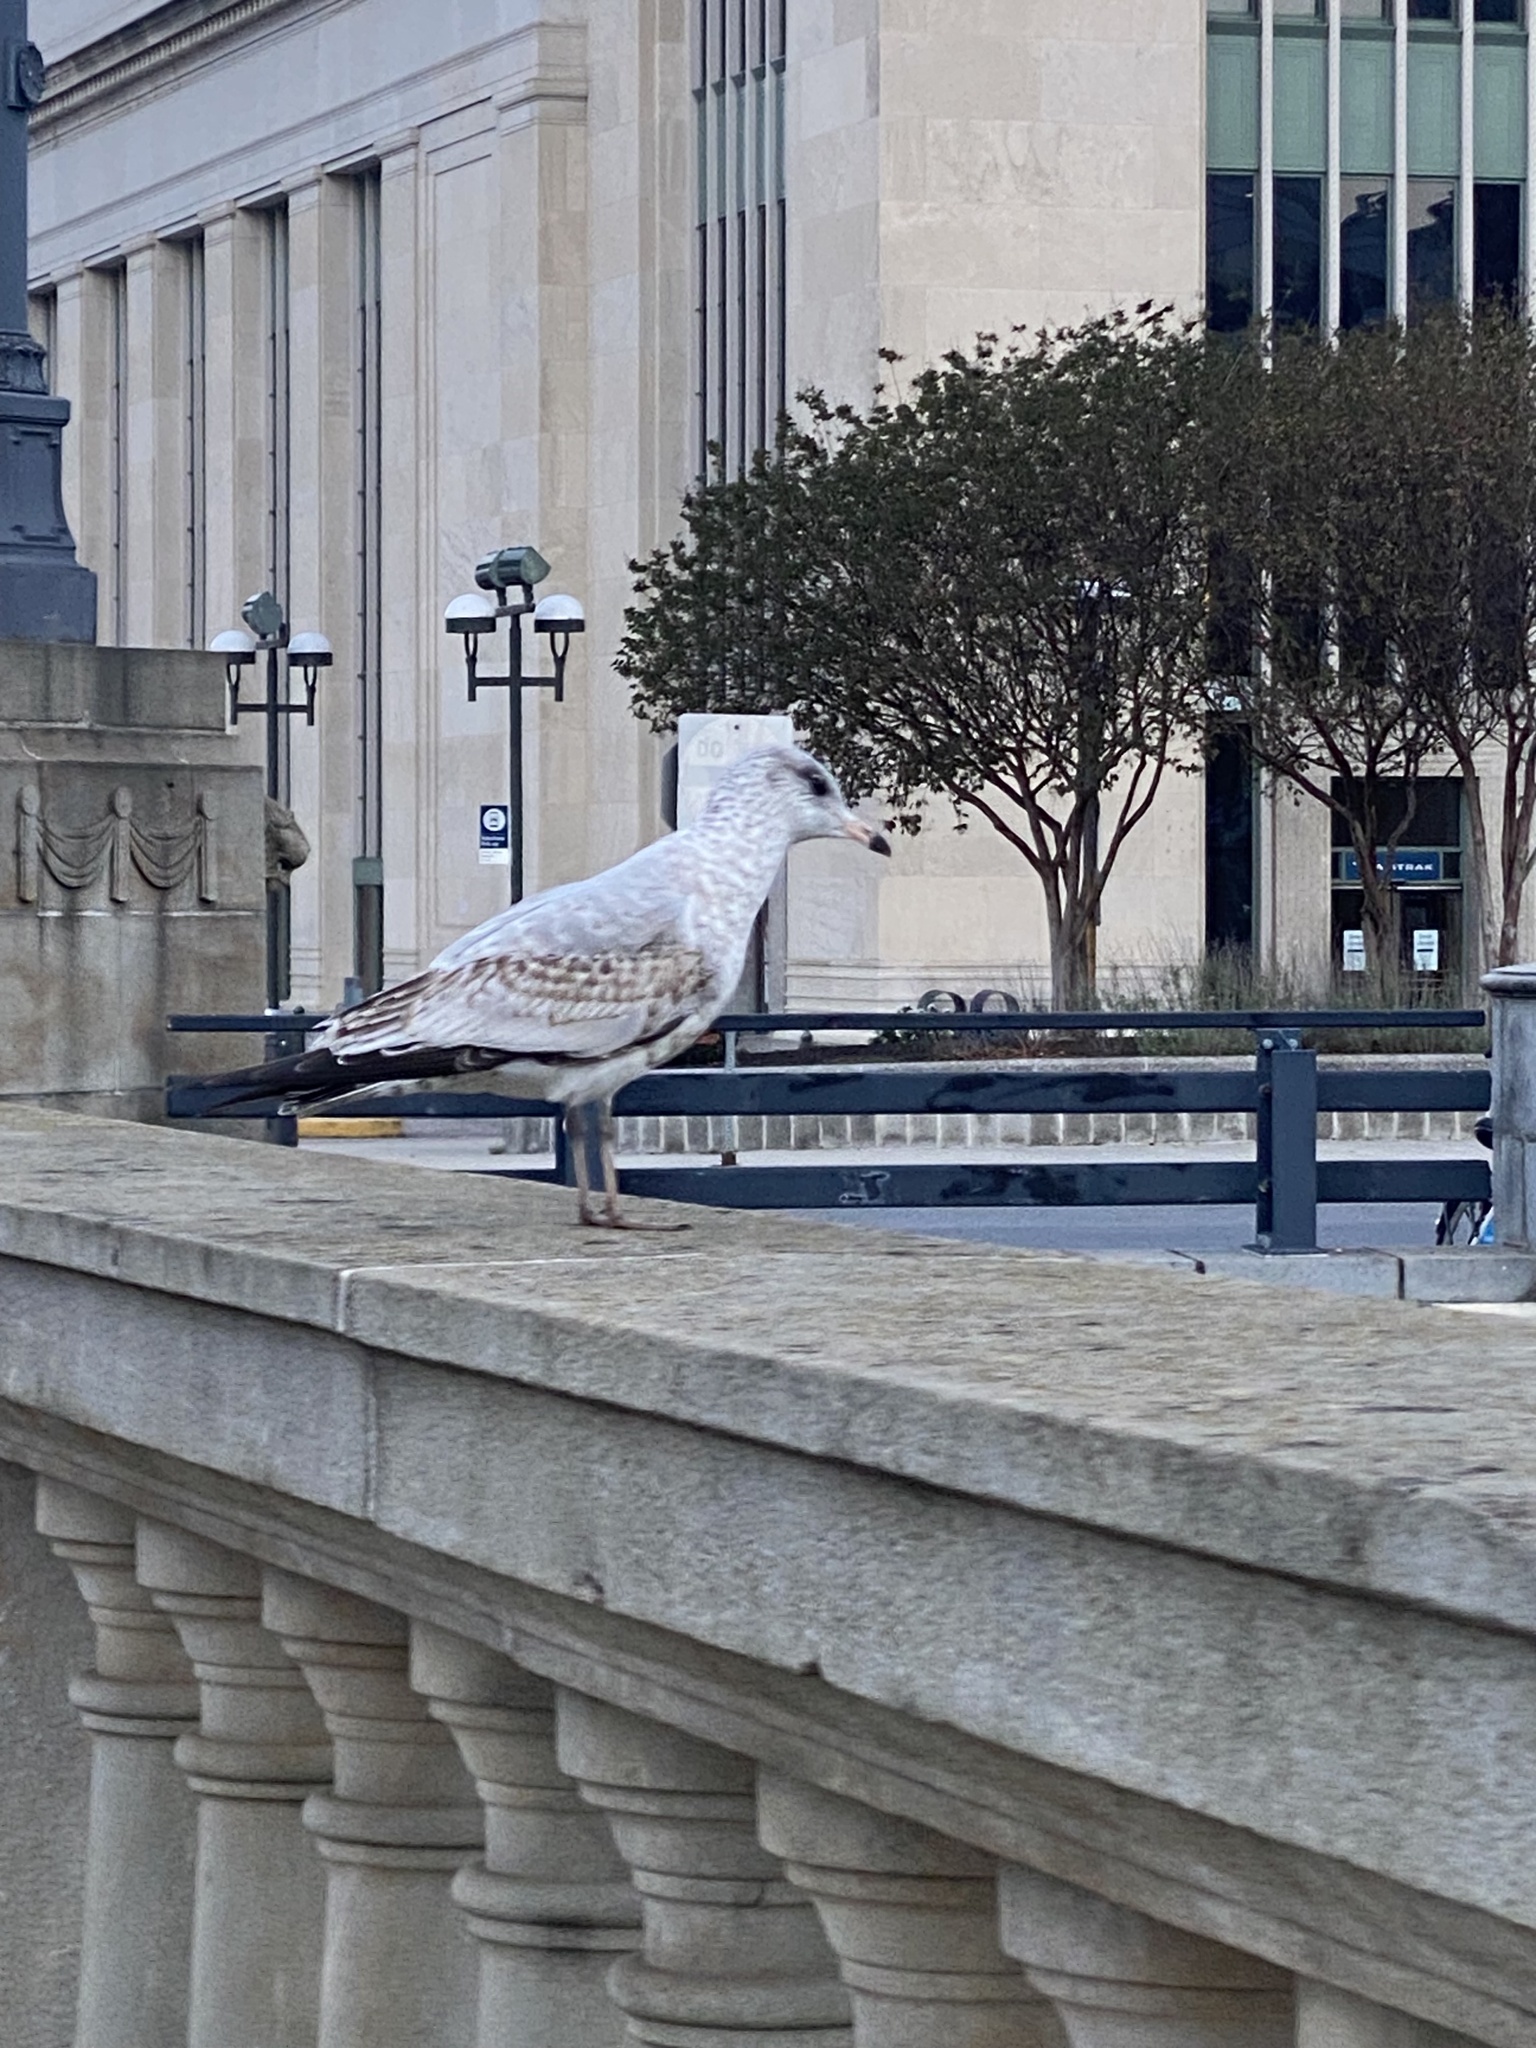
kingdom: Animalia
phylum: Chordata
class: Aves
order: Charadriiformes
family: Laridae
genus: Larus
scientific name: Larus delawarensis
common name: Ring-billed gull
